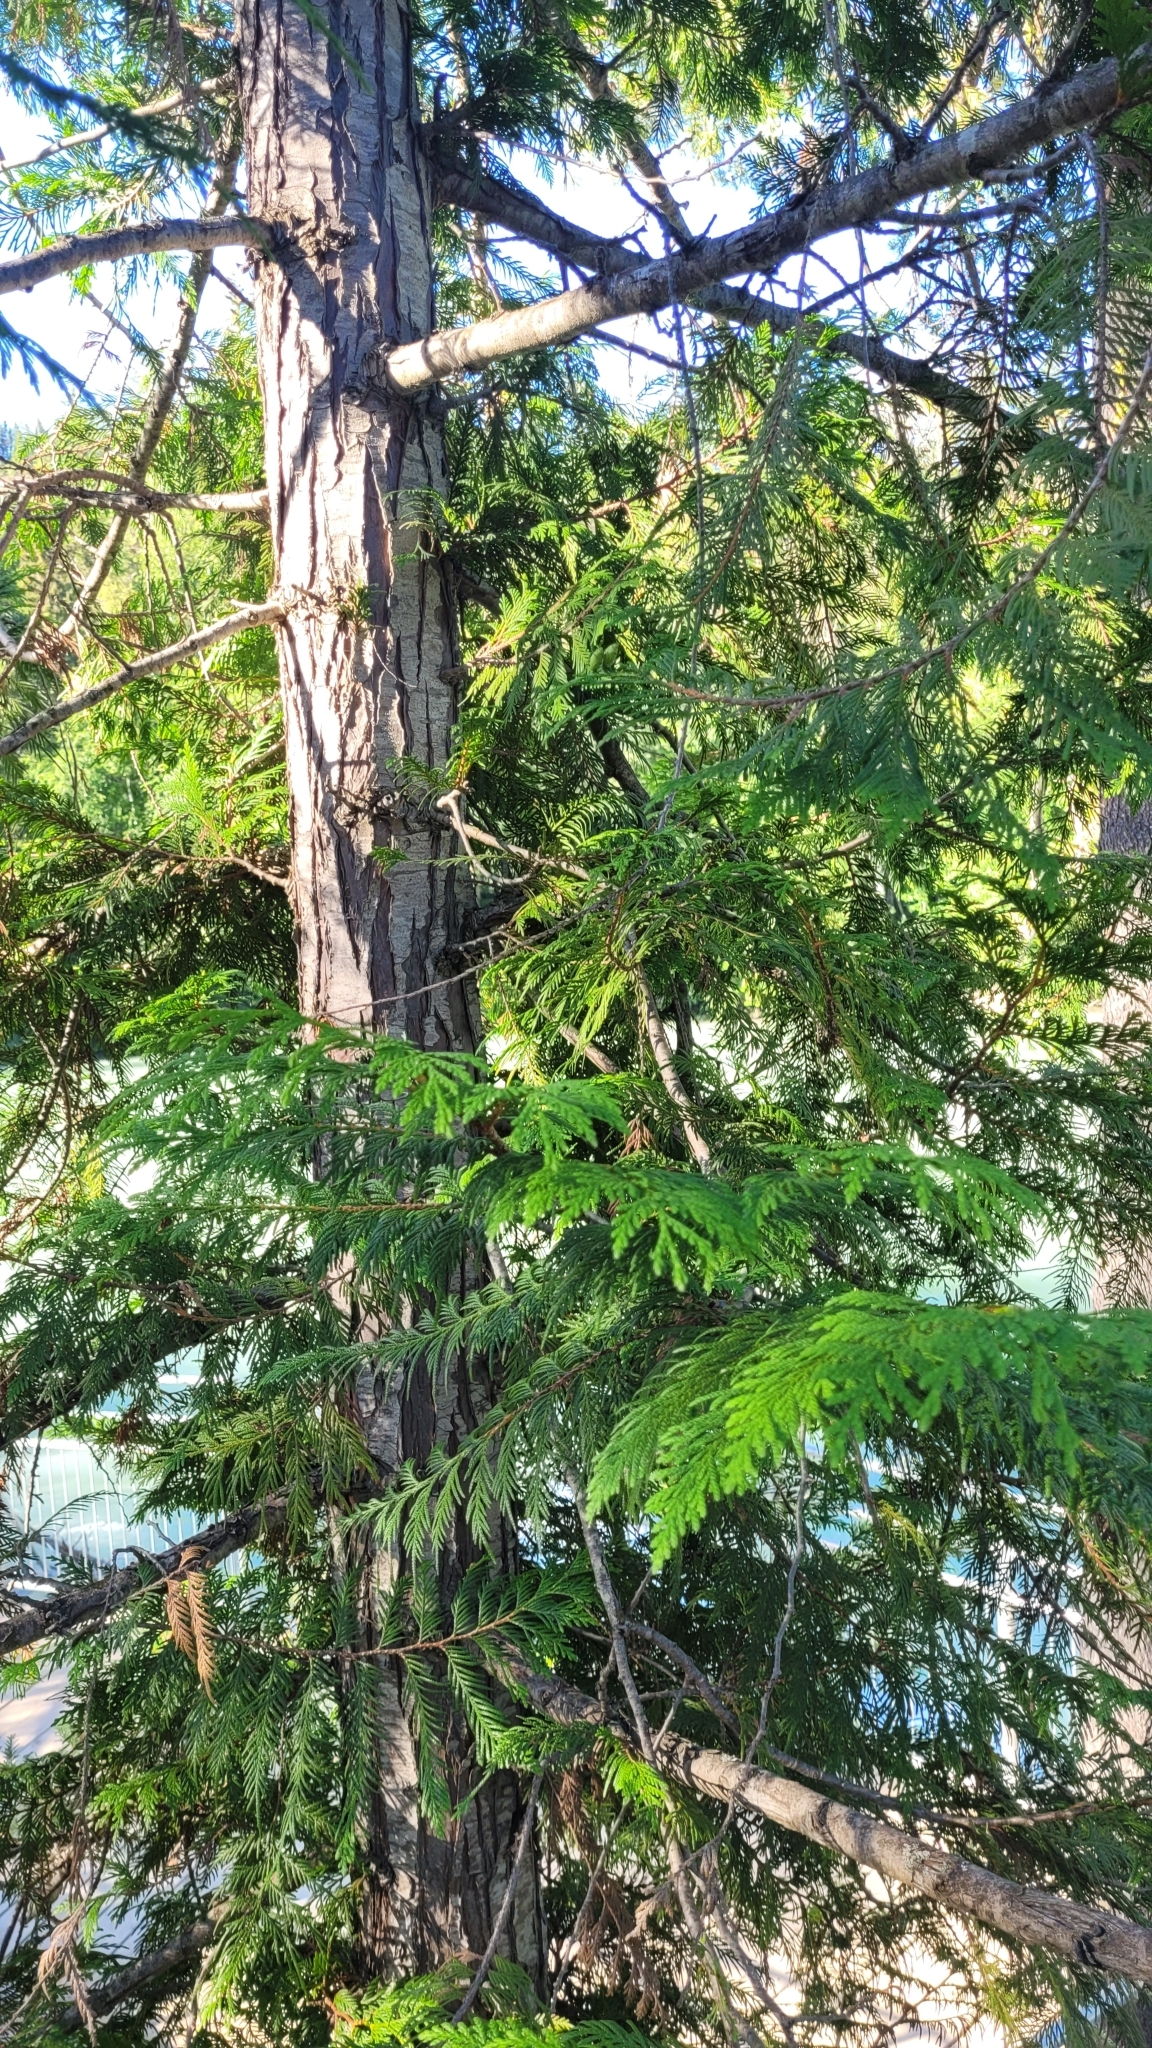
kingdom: Plantae
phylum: Tracheophyta
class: Pinopsida
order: Pinales
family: Cupressaceae
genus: Thuja
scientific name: Thuja plicata
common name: Western red-cedar
